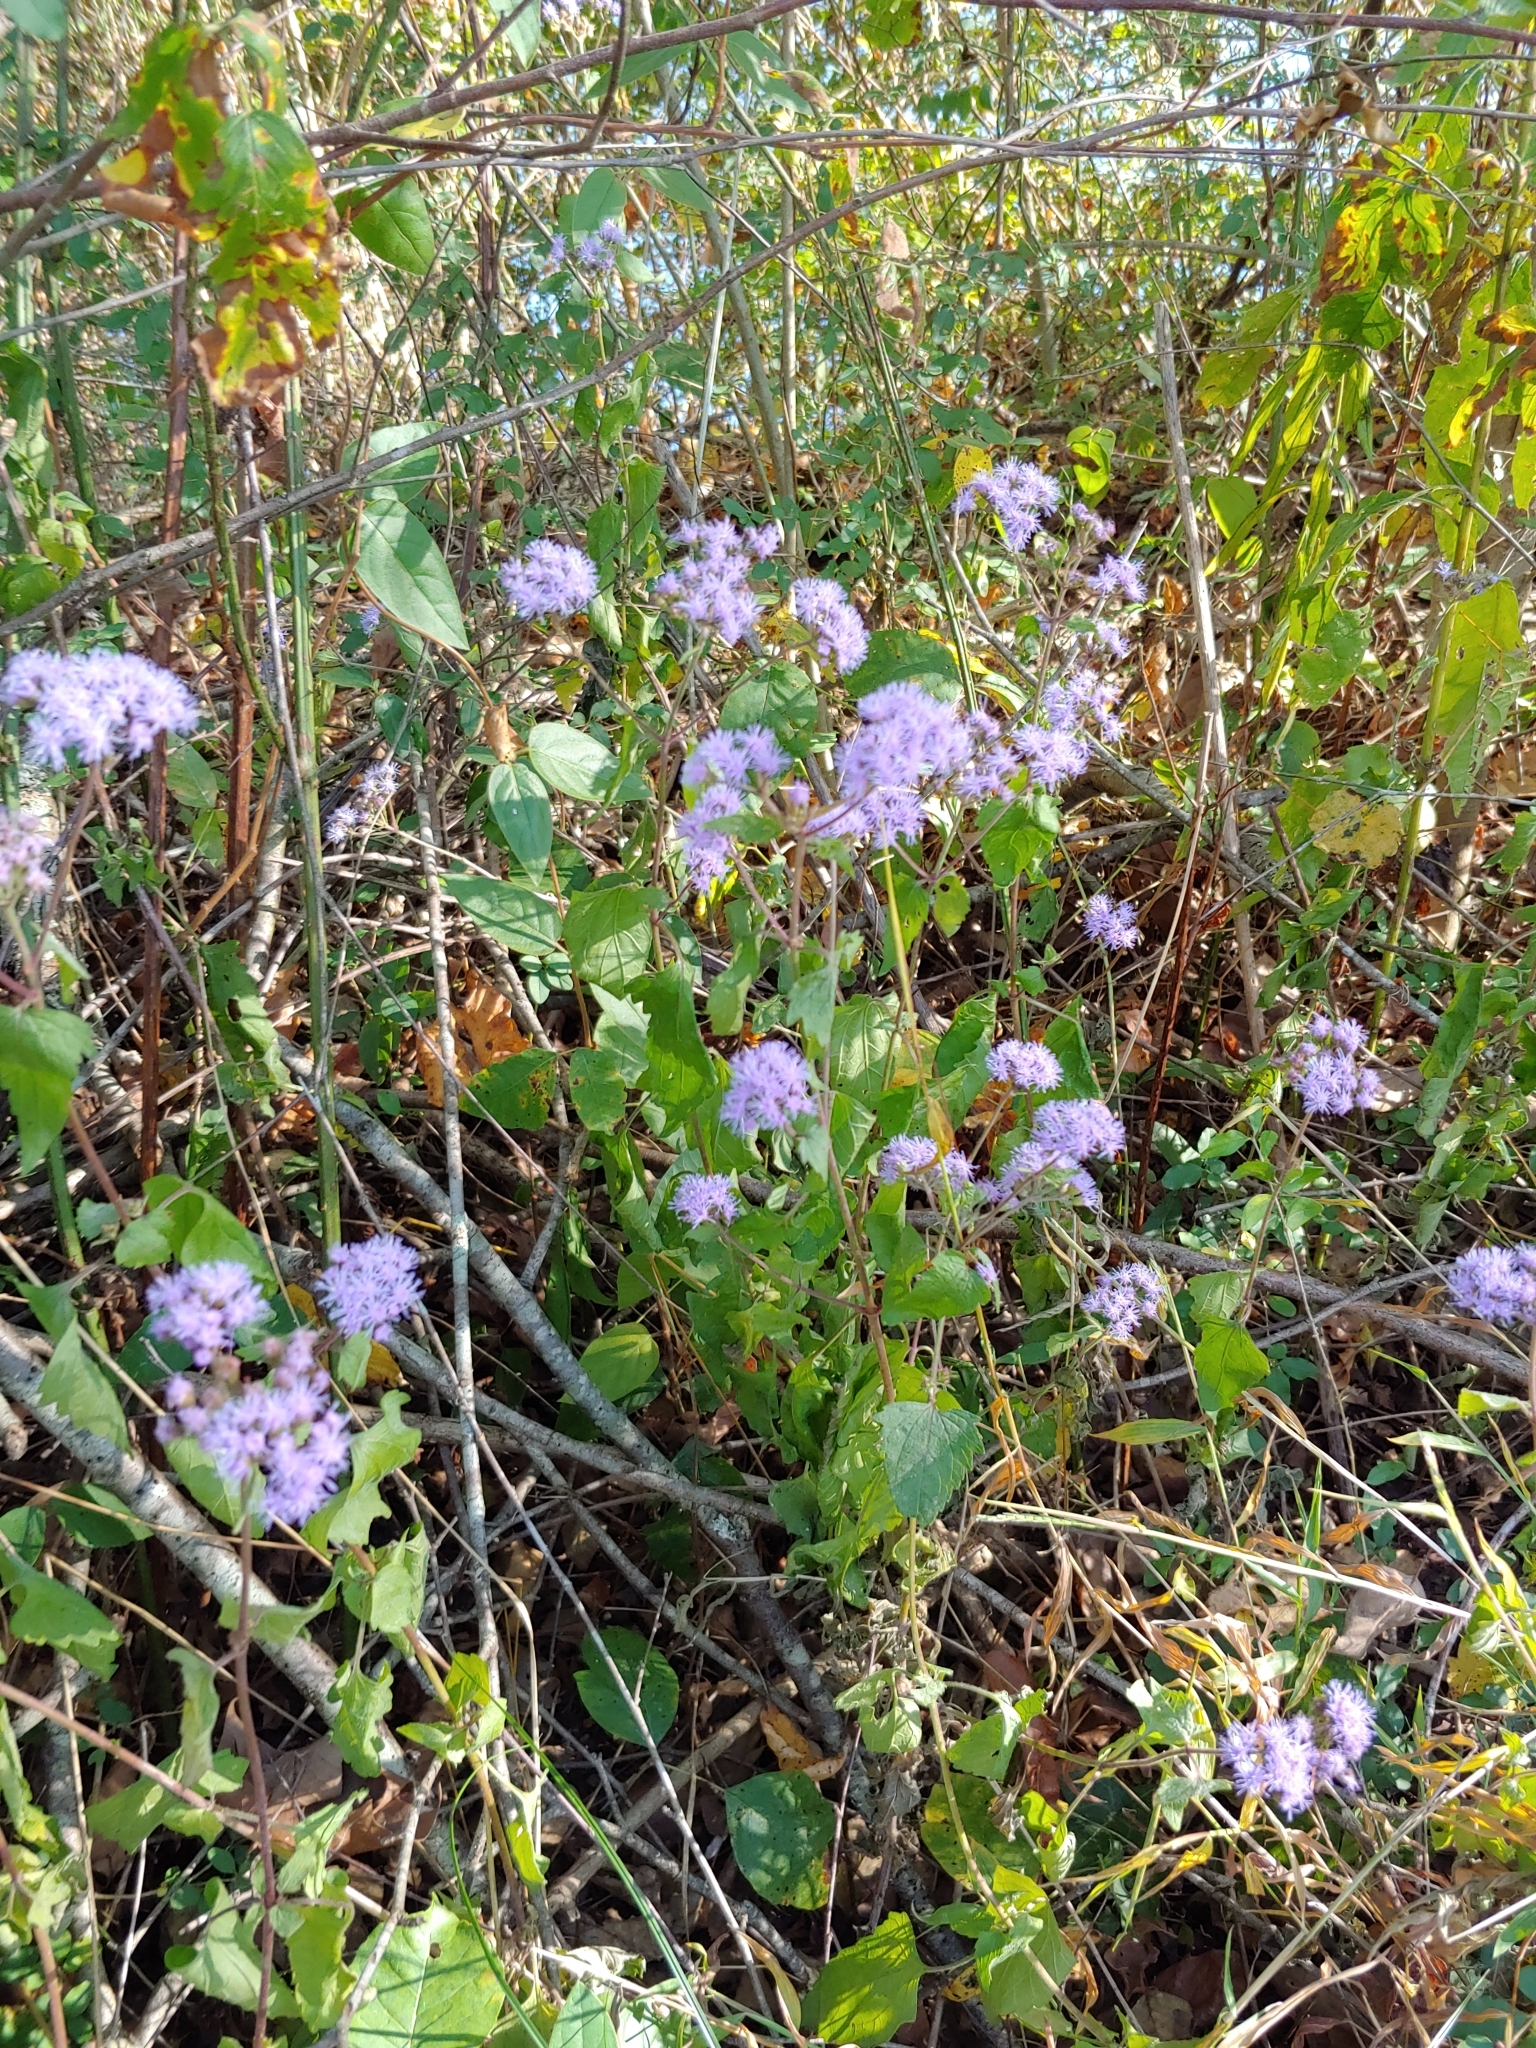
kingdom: Plantae
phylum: Tracheophyta
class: Magnoliopsida
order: Asterales
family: Asteraceae
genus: Conoclinium
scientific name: Conoclinium coelestinum
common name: Blue mistflower
